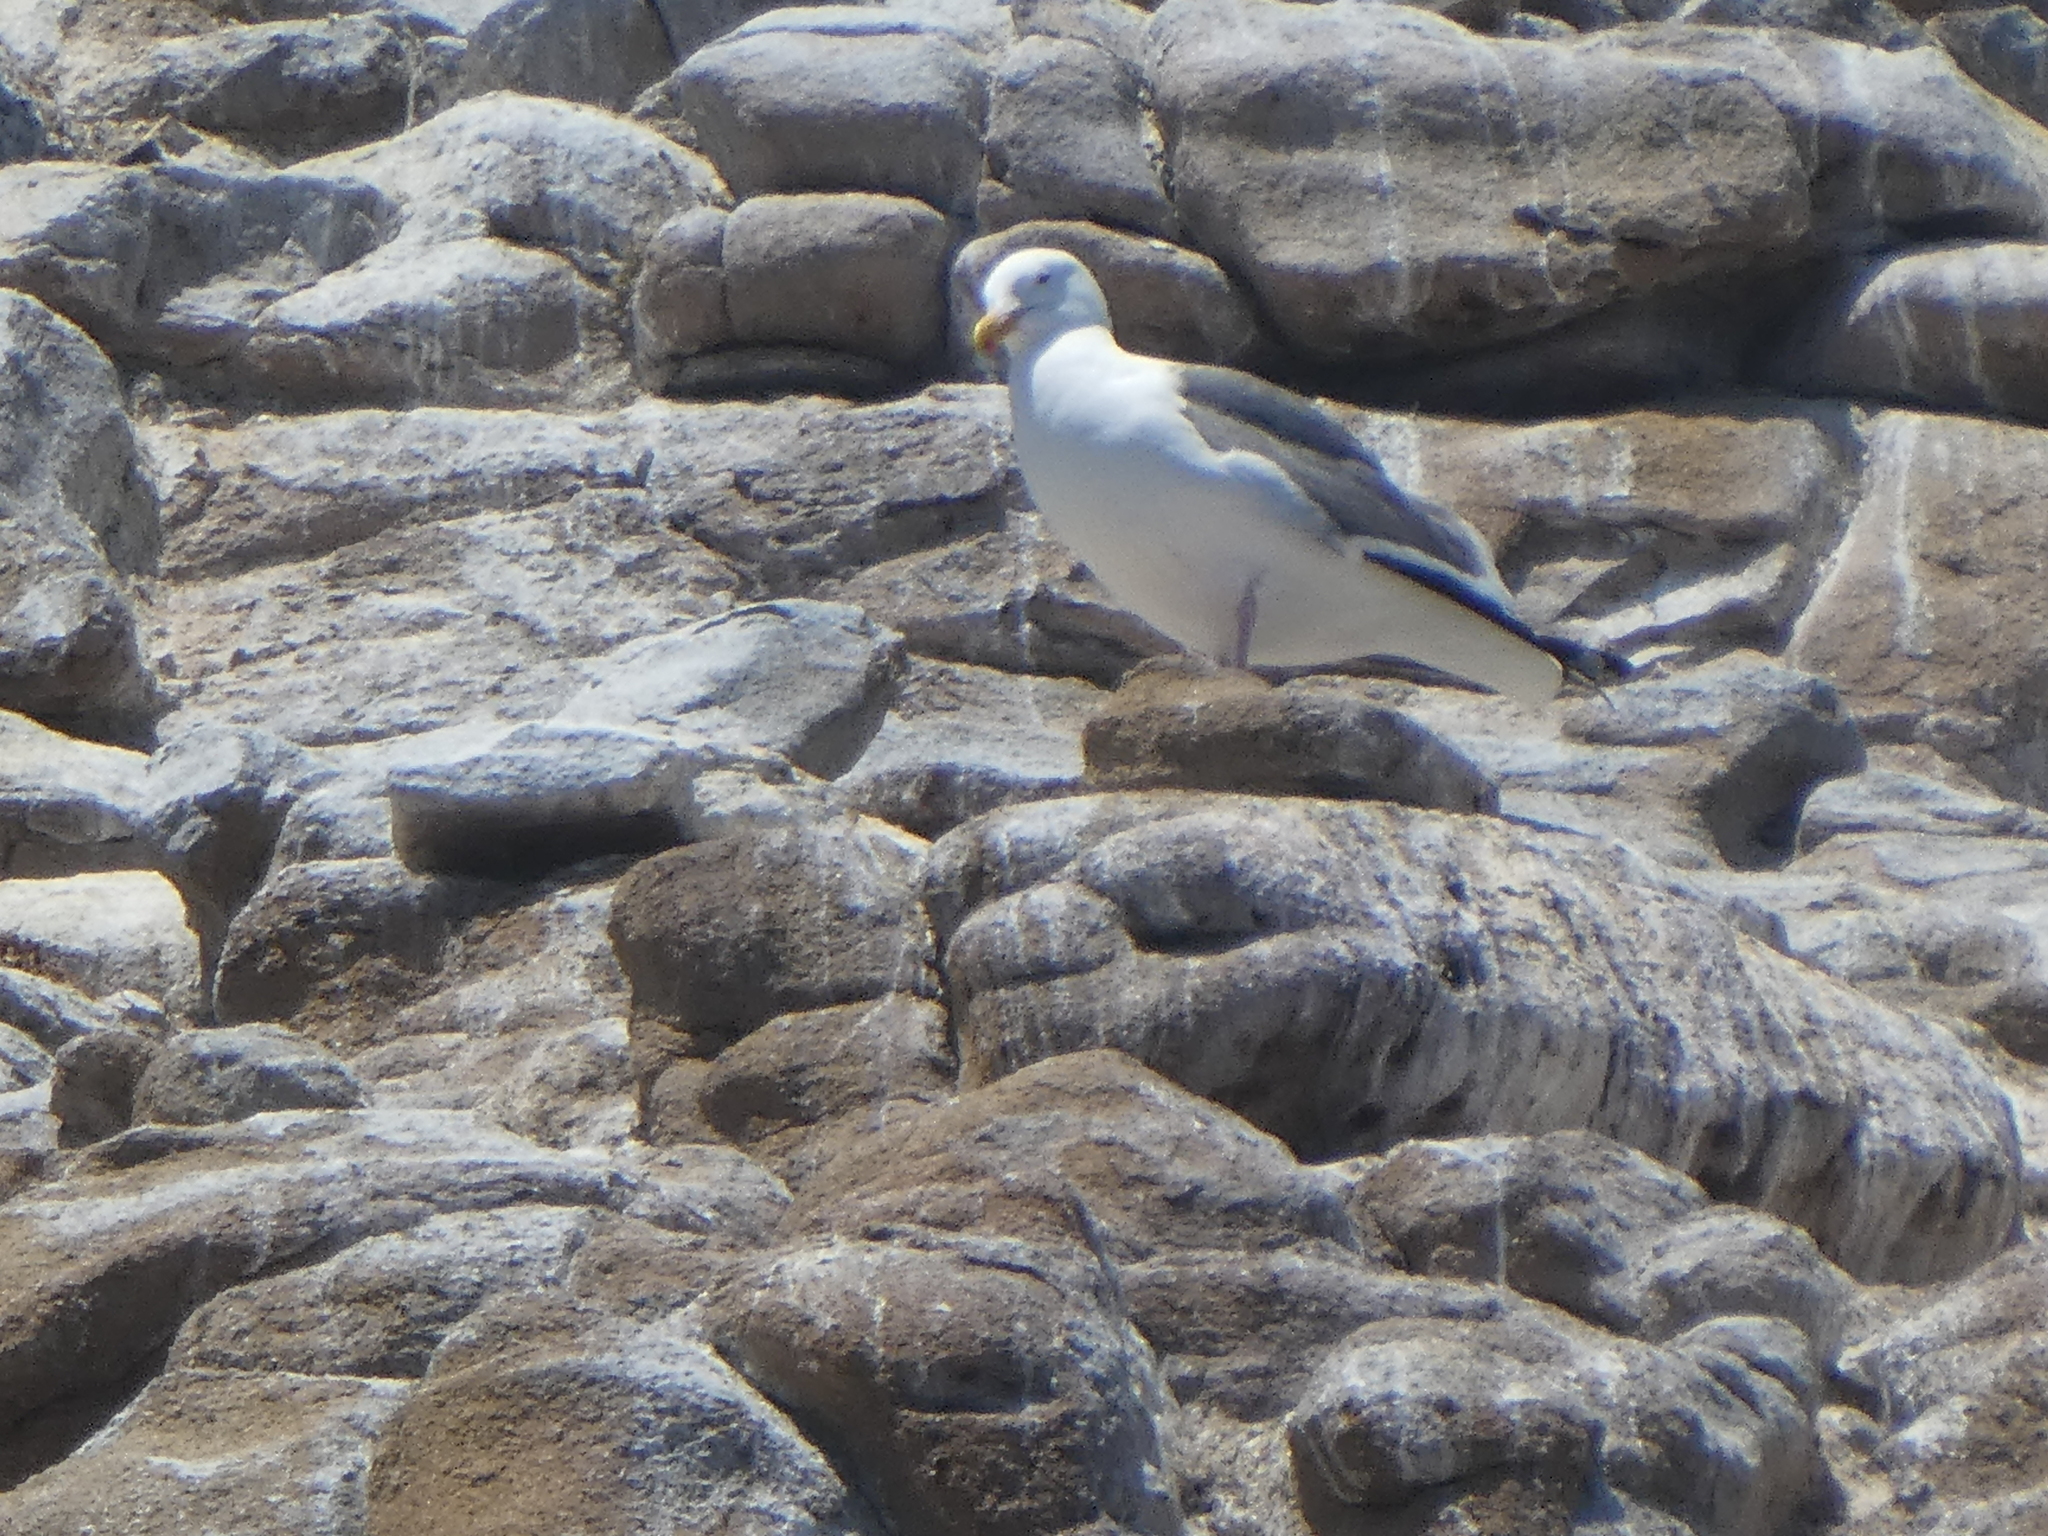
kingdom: Animalia
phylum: Chordata
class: Aves
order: Charadriiformes
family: Laridae
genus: Larus
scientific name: Larus occidentalis
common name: Western gull
